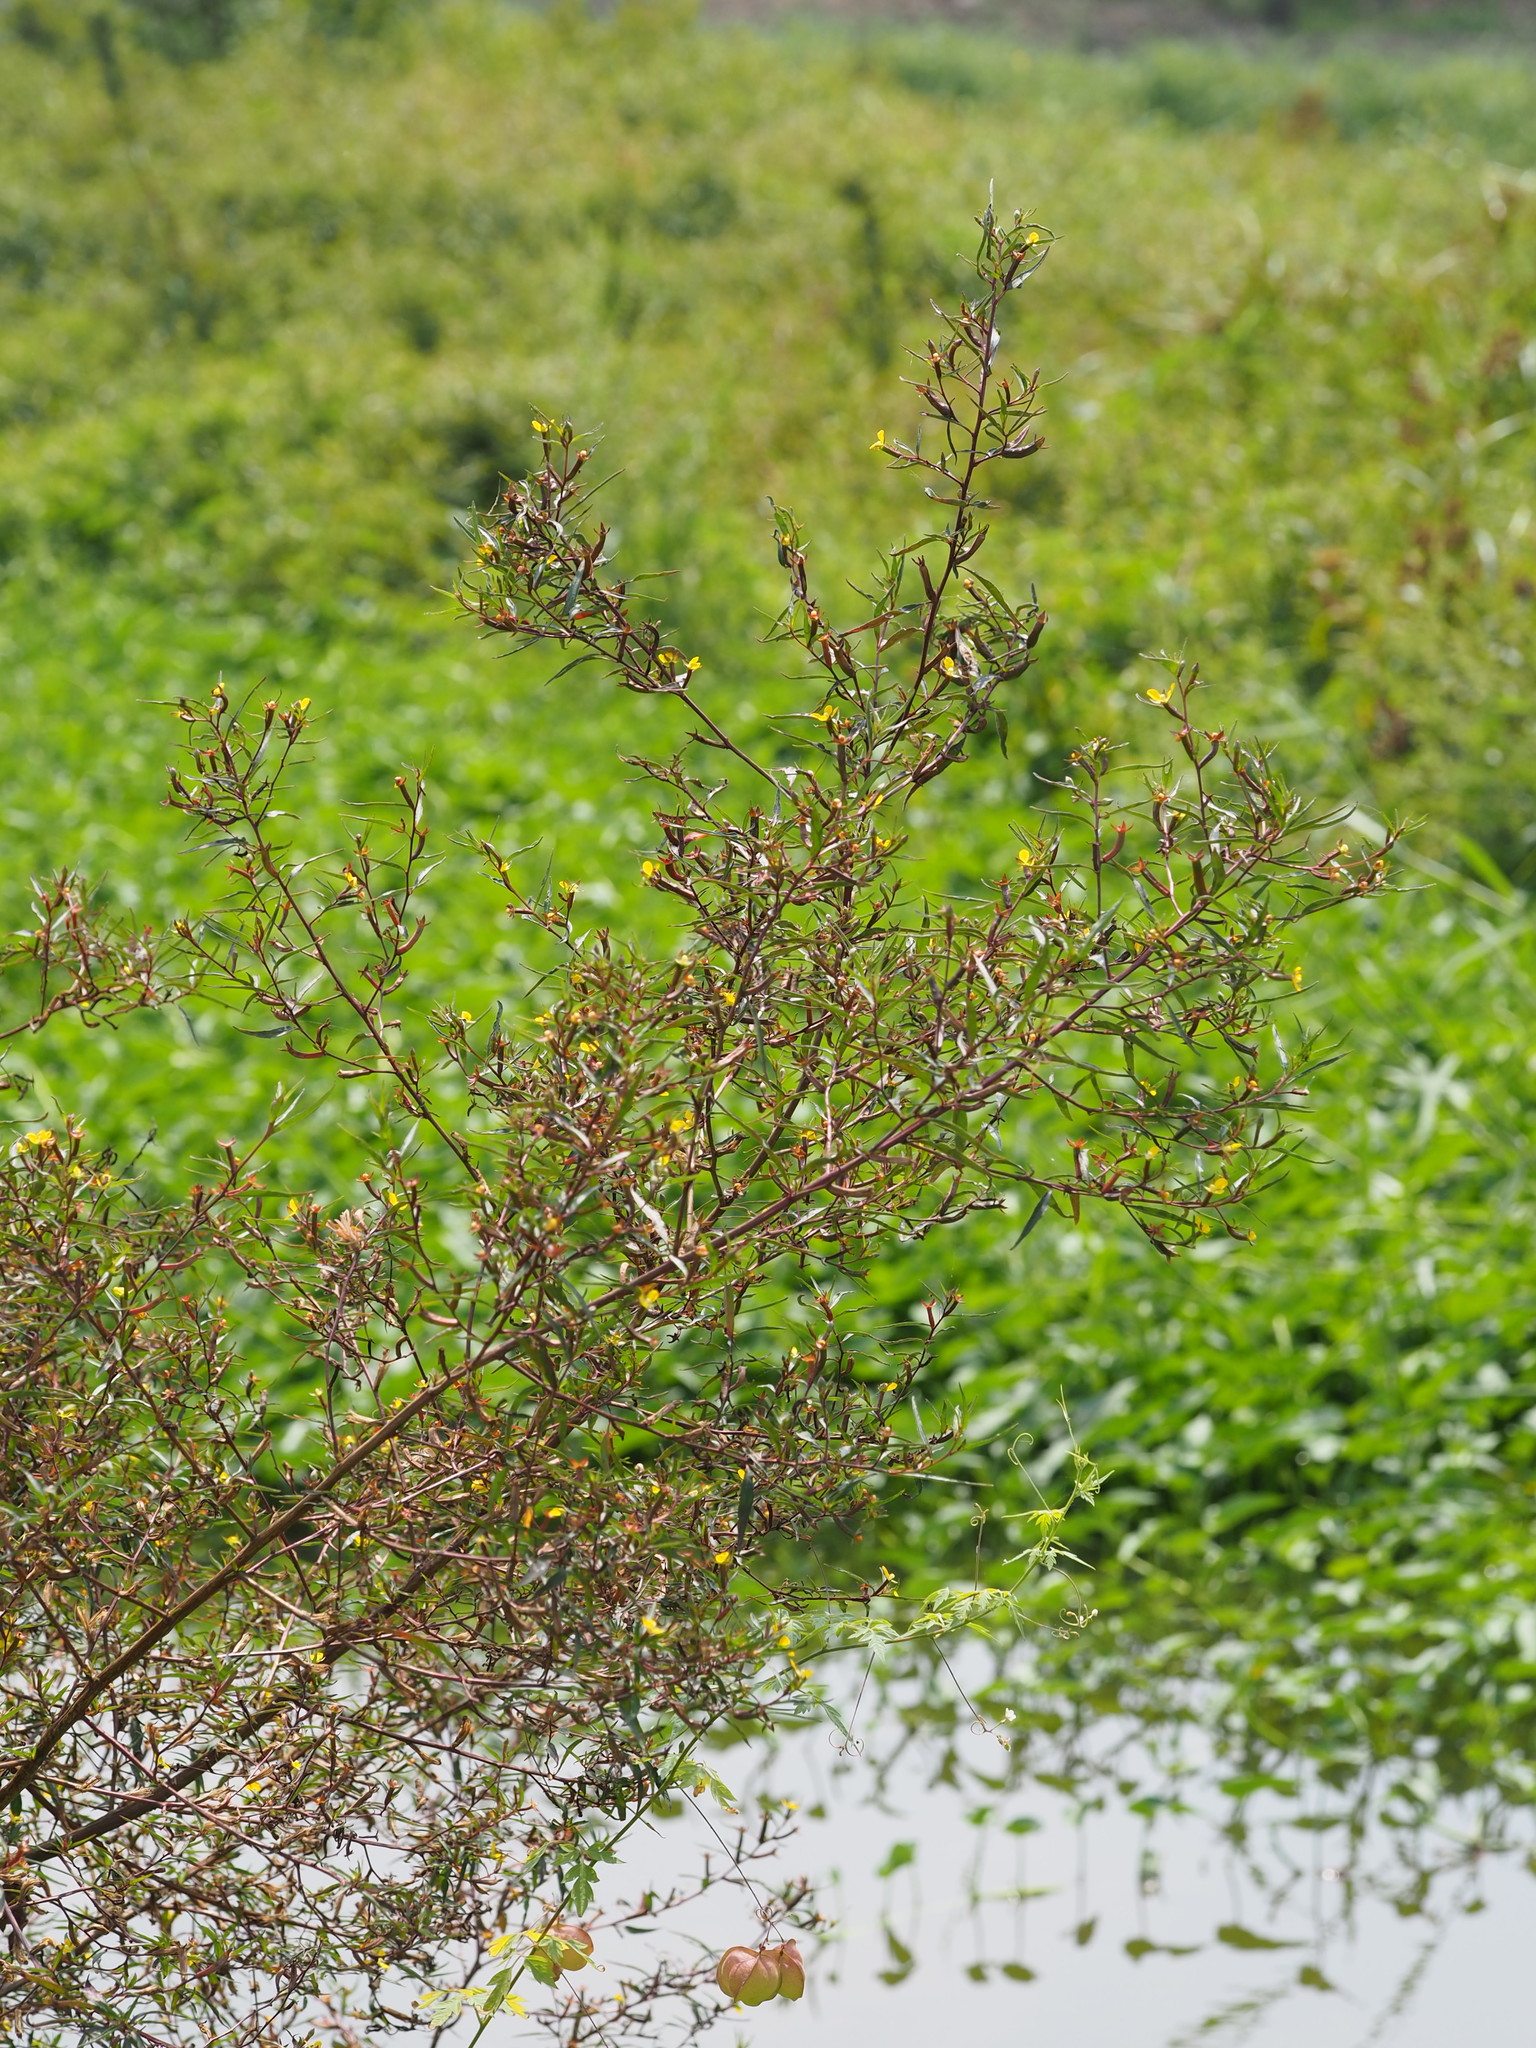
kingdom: Plantae
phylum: Tracheophyta
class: Magnoliopsida
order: Myrtales
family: Onagraceae
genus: Ludwigia
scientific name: Ludwigia erecta
